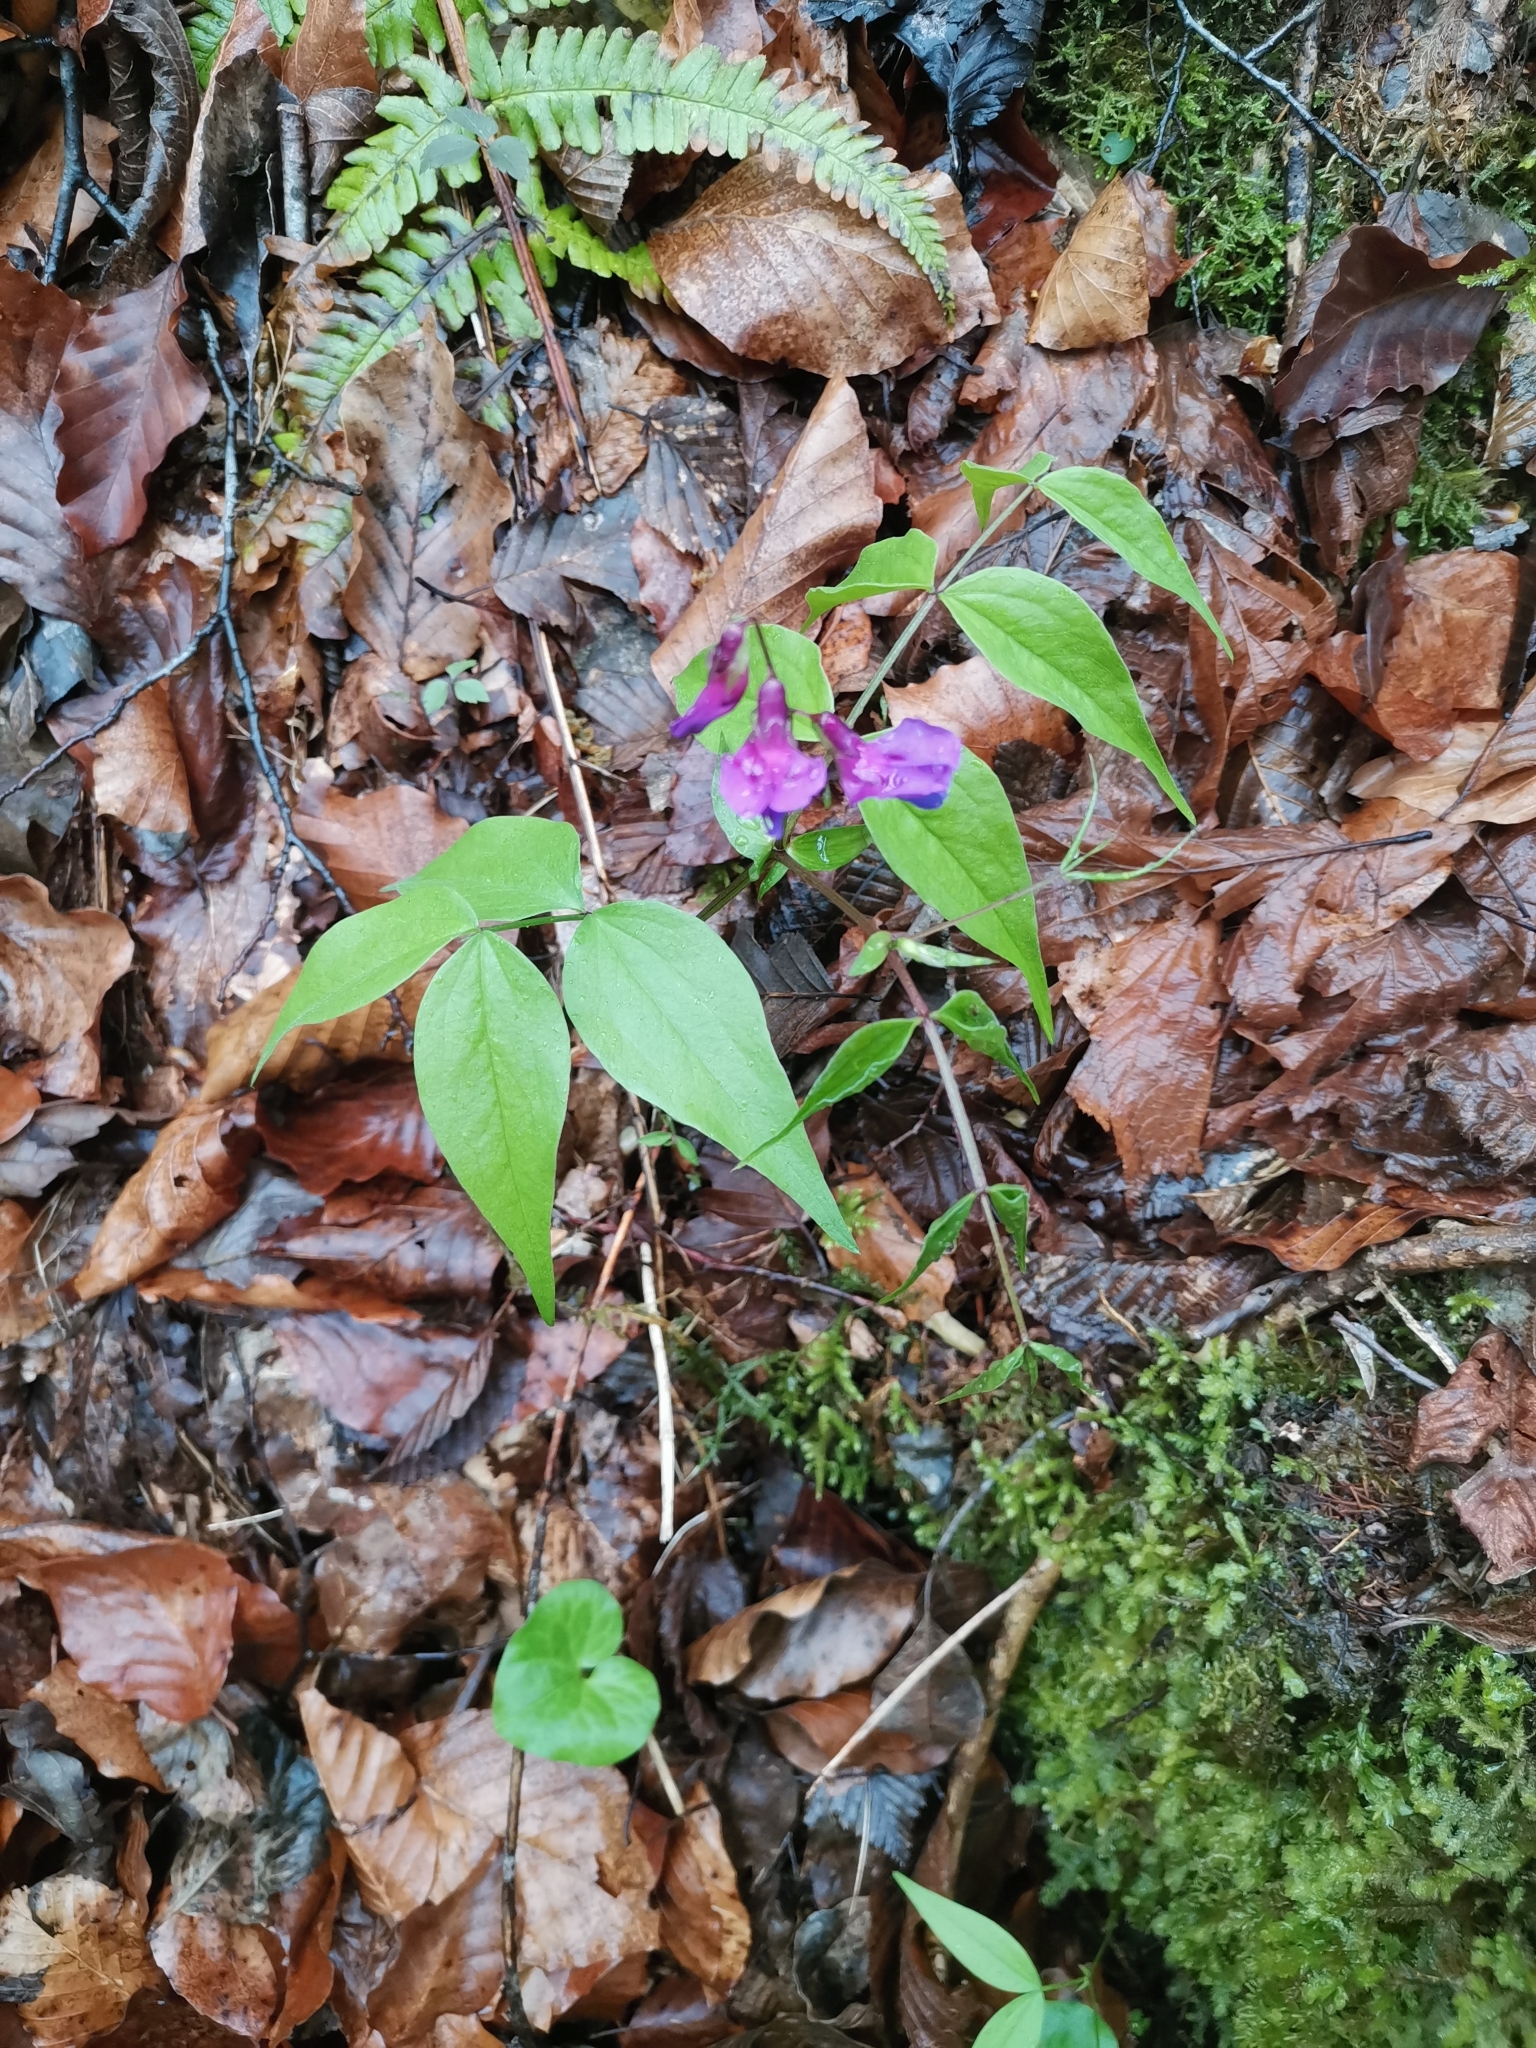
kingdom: Plantae
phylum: Tracheophyta
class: Magnoliopsida
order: Fabales
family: Fabaceae
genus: Lathyrus
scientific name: Lathyrus vernus
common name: Spring pea
